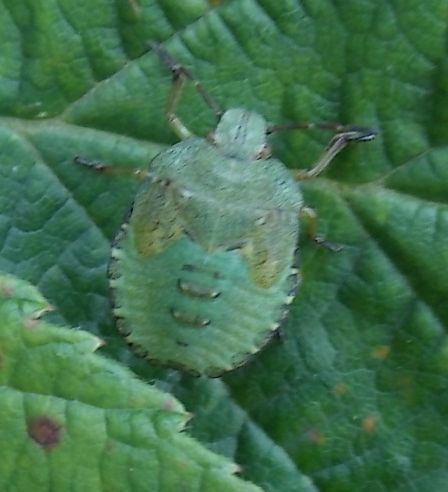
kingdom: Animalia
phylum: Arthropoda
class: Insecta
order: Hemiptera
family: Pentatomidae
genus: Palomena
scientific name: Palomena prasina
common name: Green shieldbug
